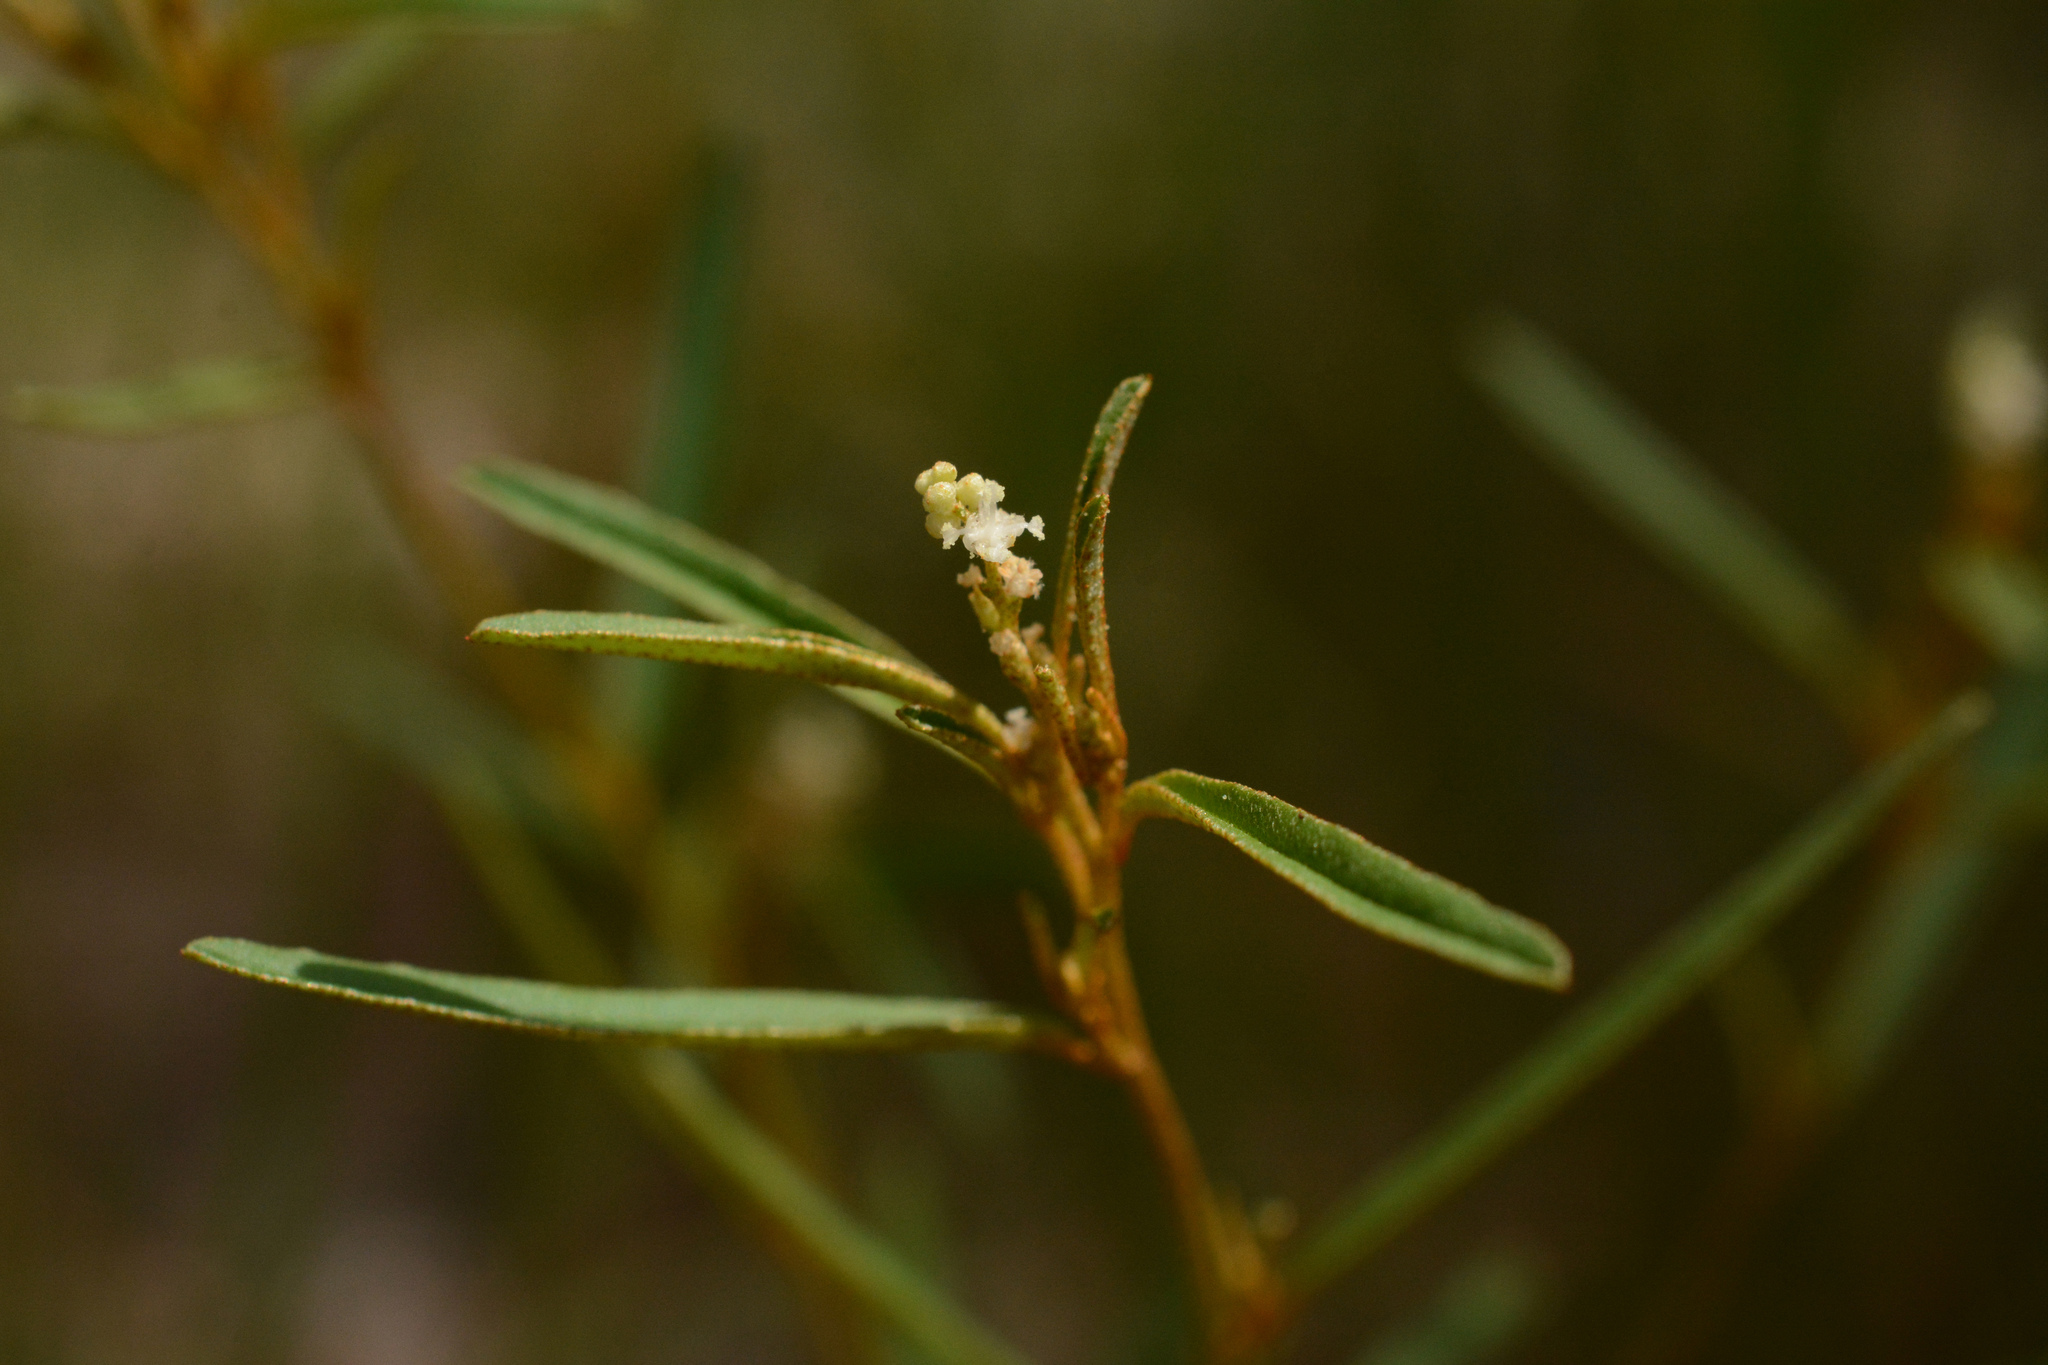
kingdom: Plantae
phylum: Tracheophyta
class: Magnoliopsida
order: Gentianales
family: Apocynaceae
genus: Asclepias
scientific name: Asclepias pedicellata
